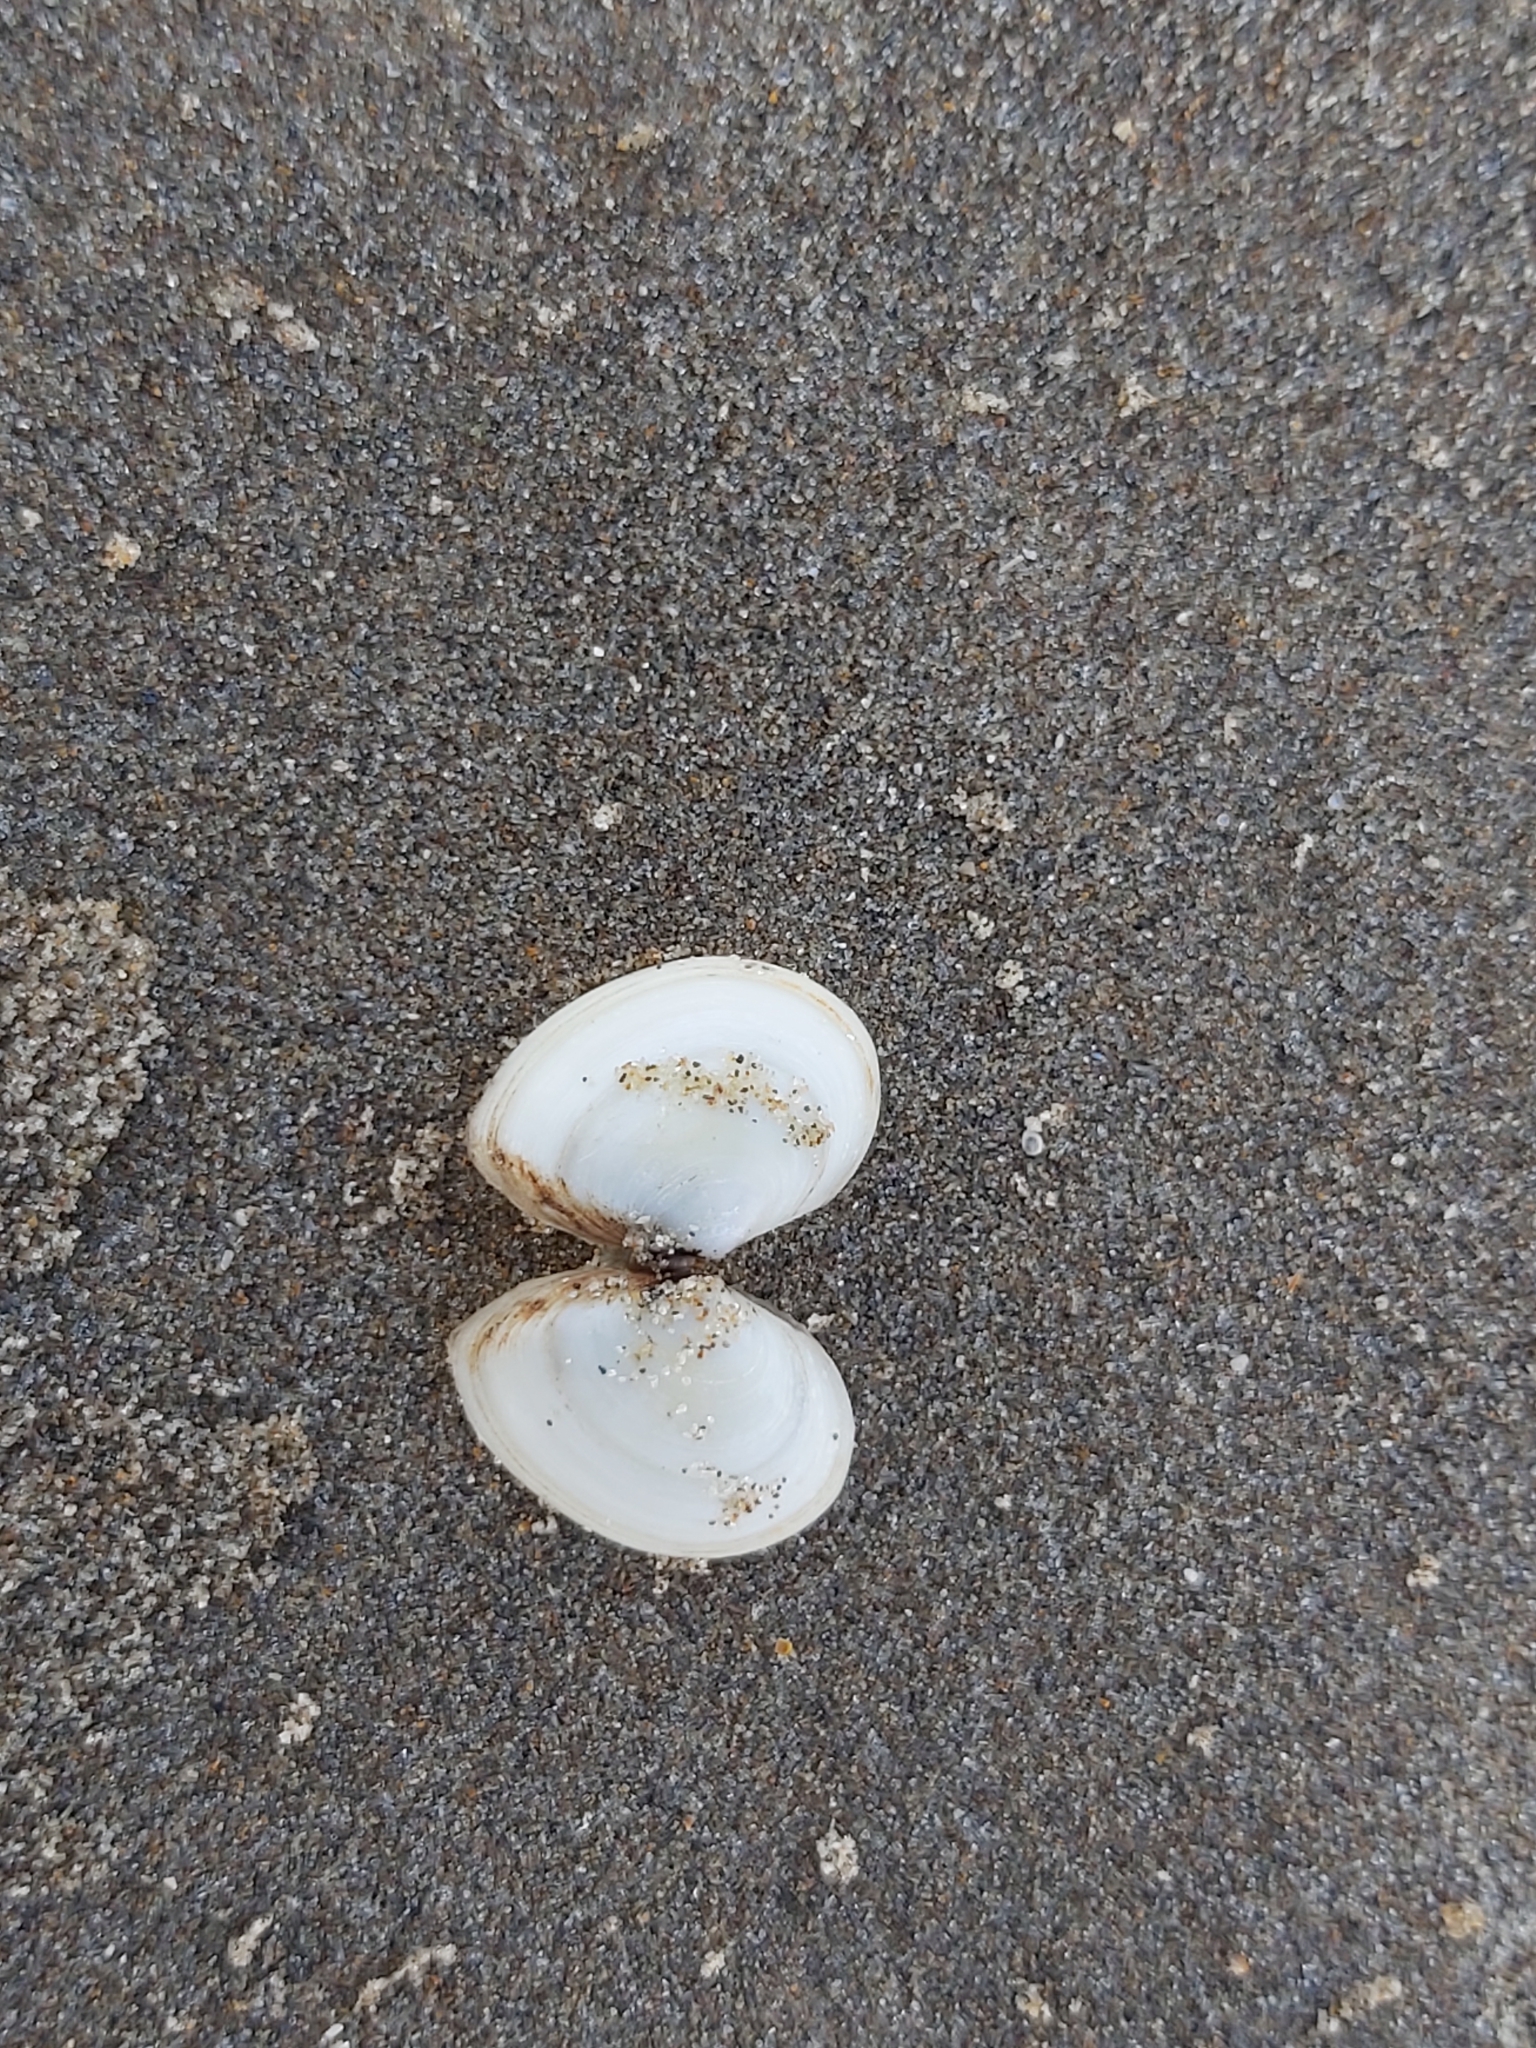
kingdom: Animalia
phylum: Mollusca
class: Bivalvia
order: Cardiida
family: Tellinidae
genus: Macoma
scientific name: Macoma balthica
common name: Baltic tellin
